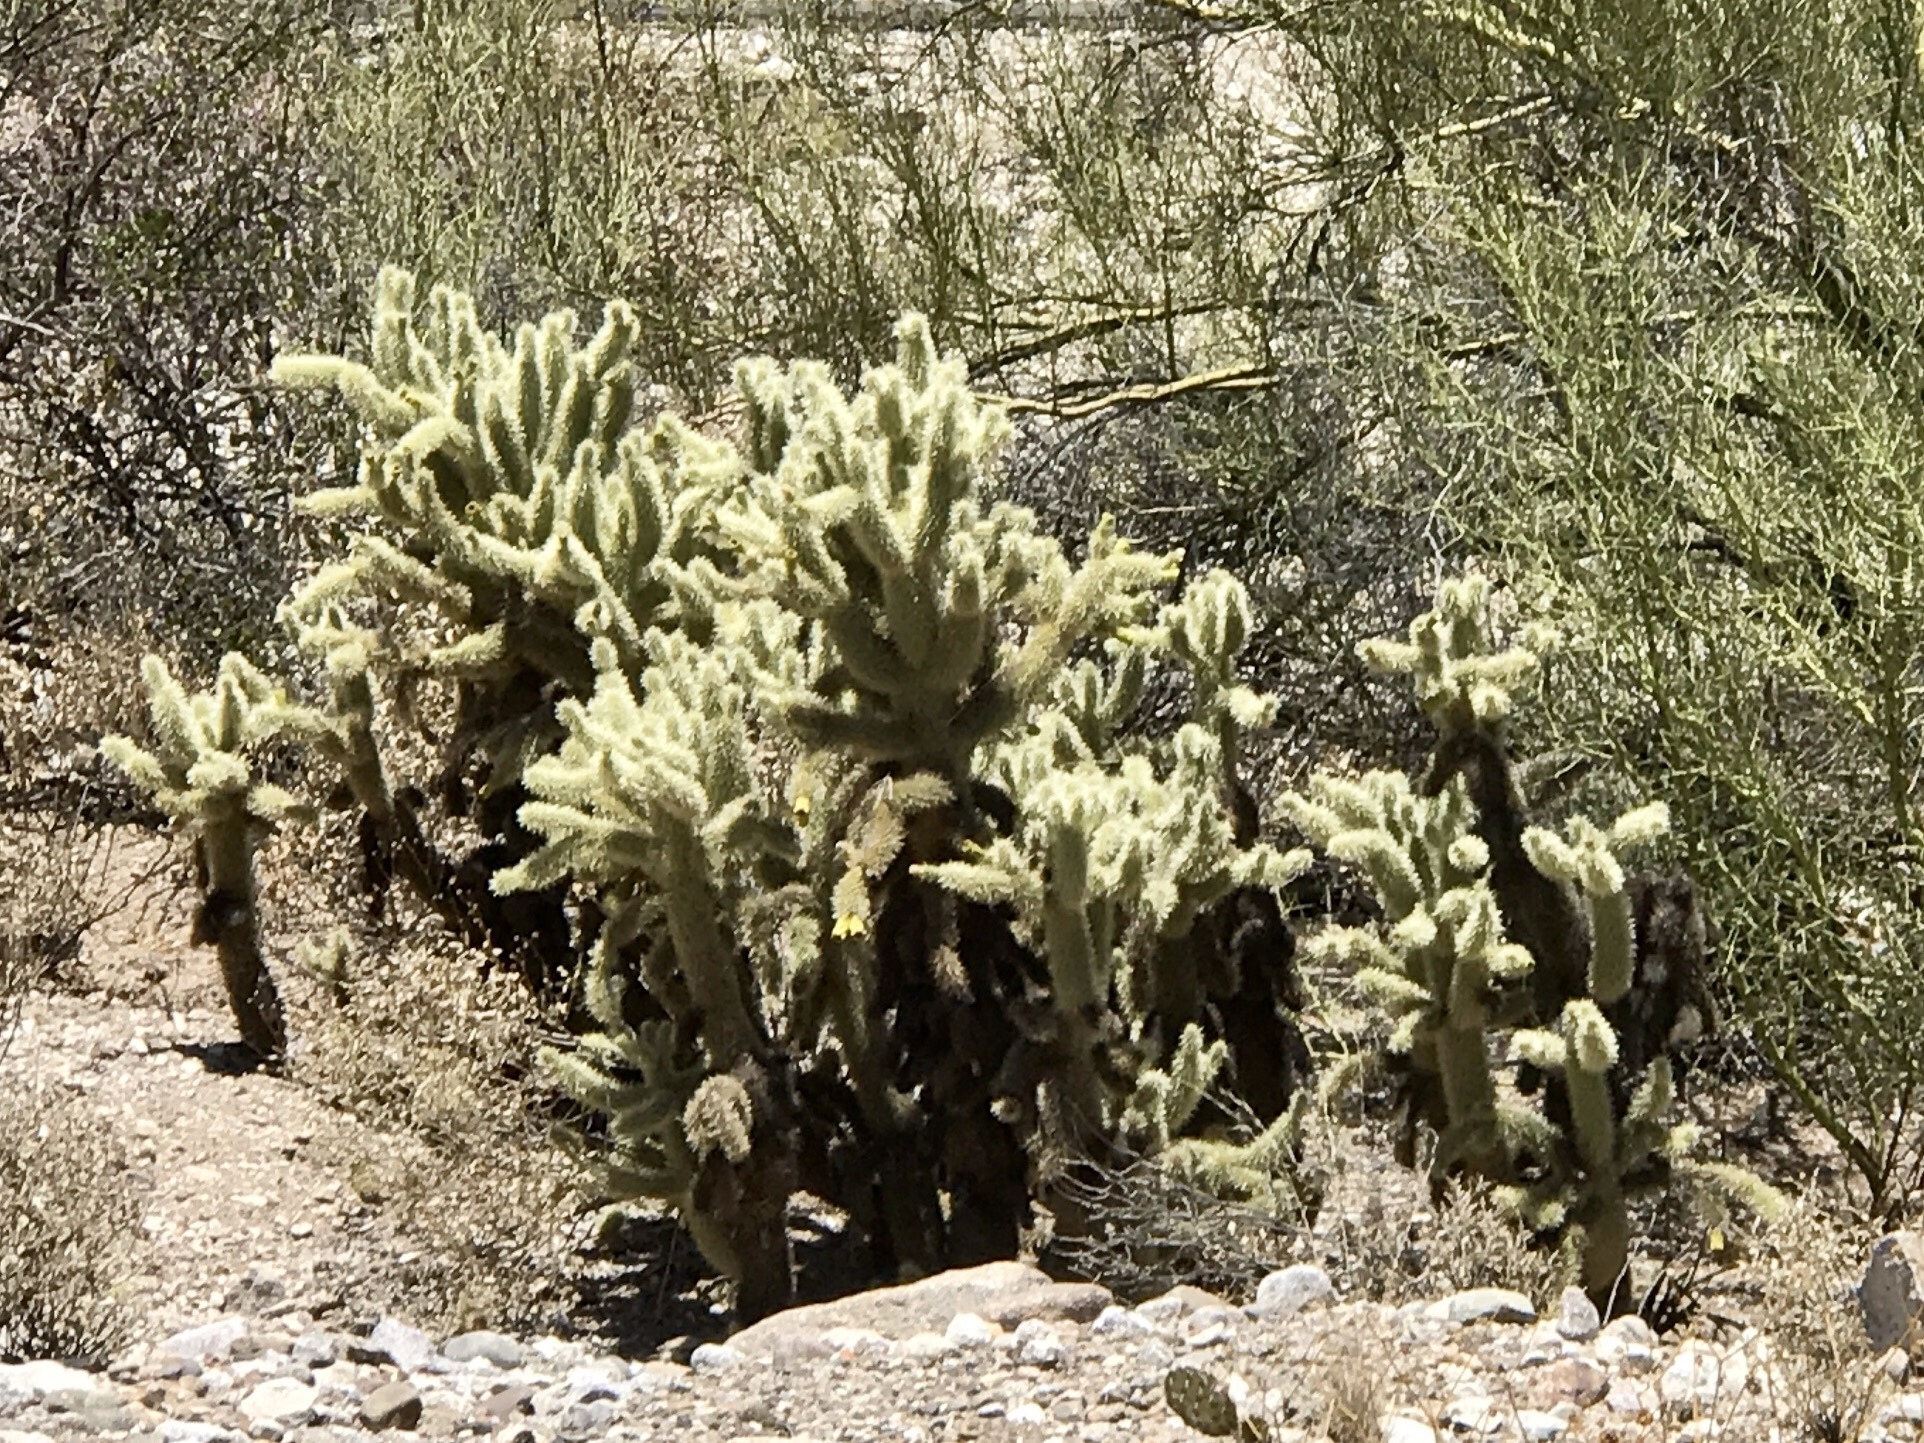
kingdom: Plantae
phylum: Tracheophyta
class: Magnoliopsida
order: Caryophyllales
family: Cactaceae
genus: Cylindropuntia
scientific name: Cylindropuntia fosbergii
